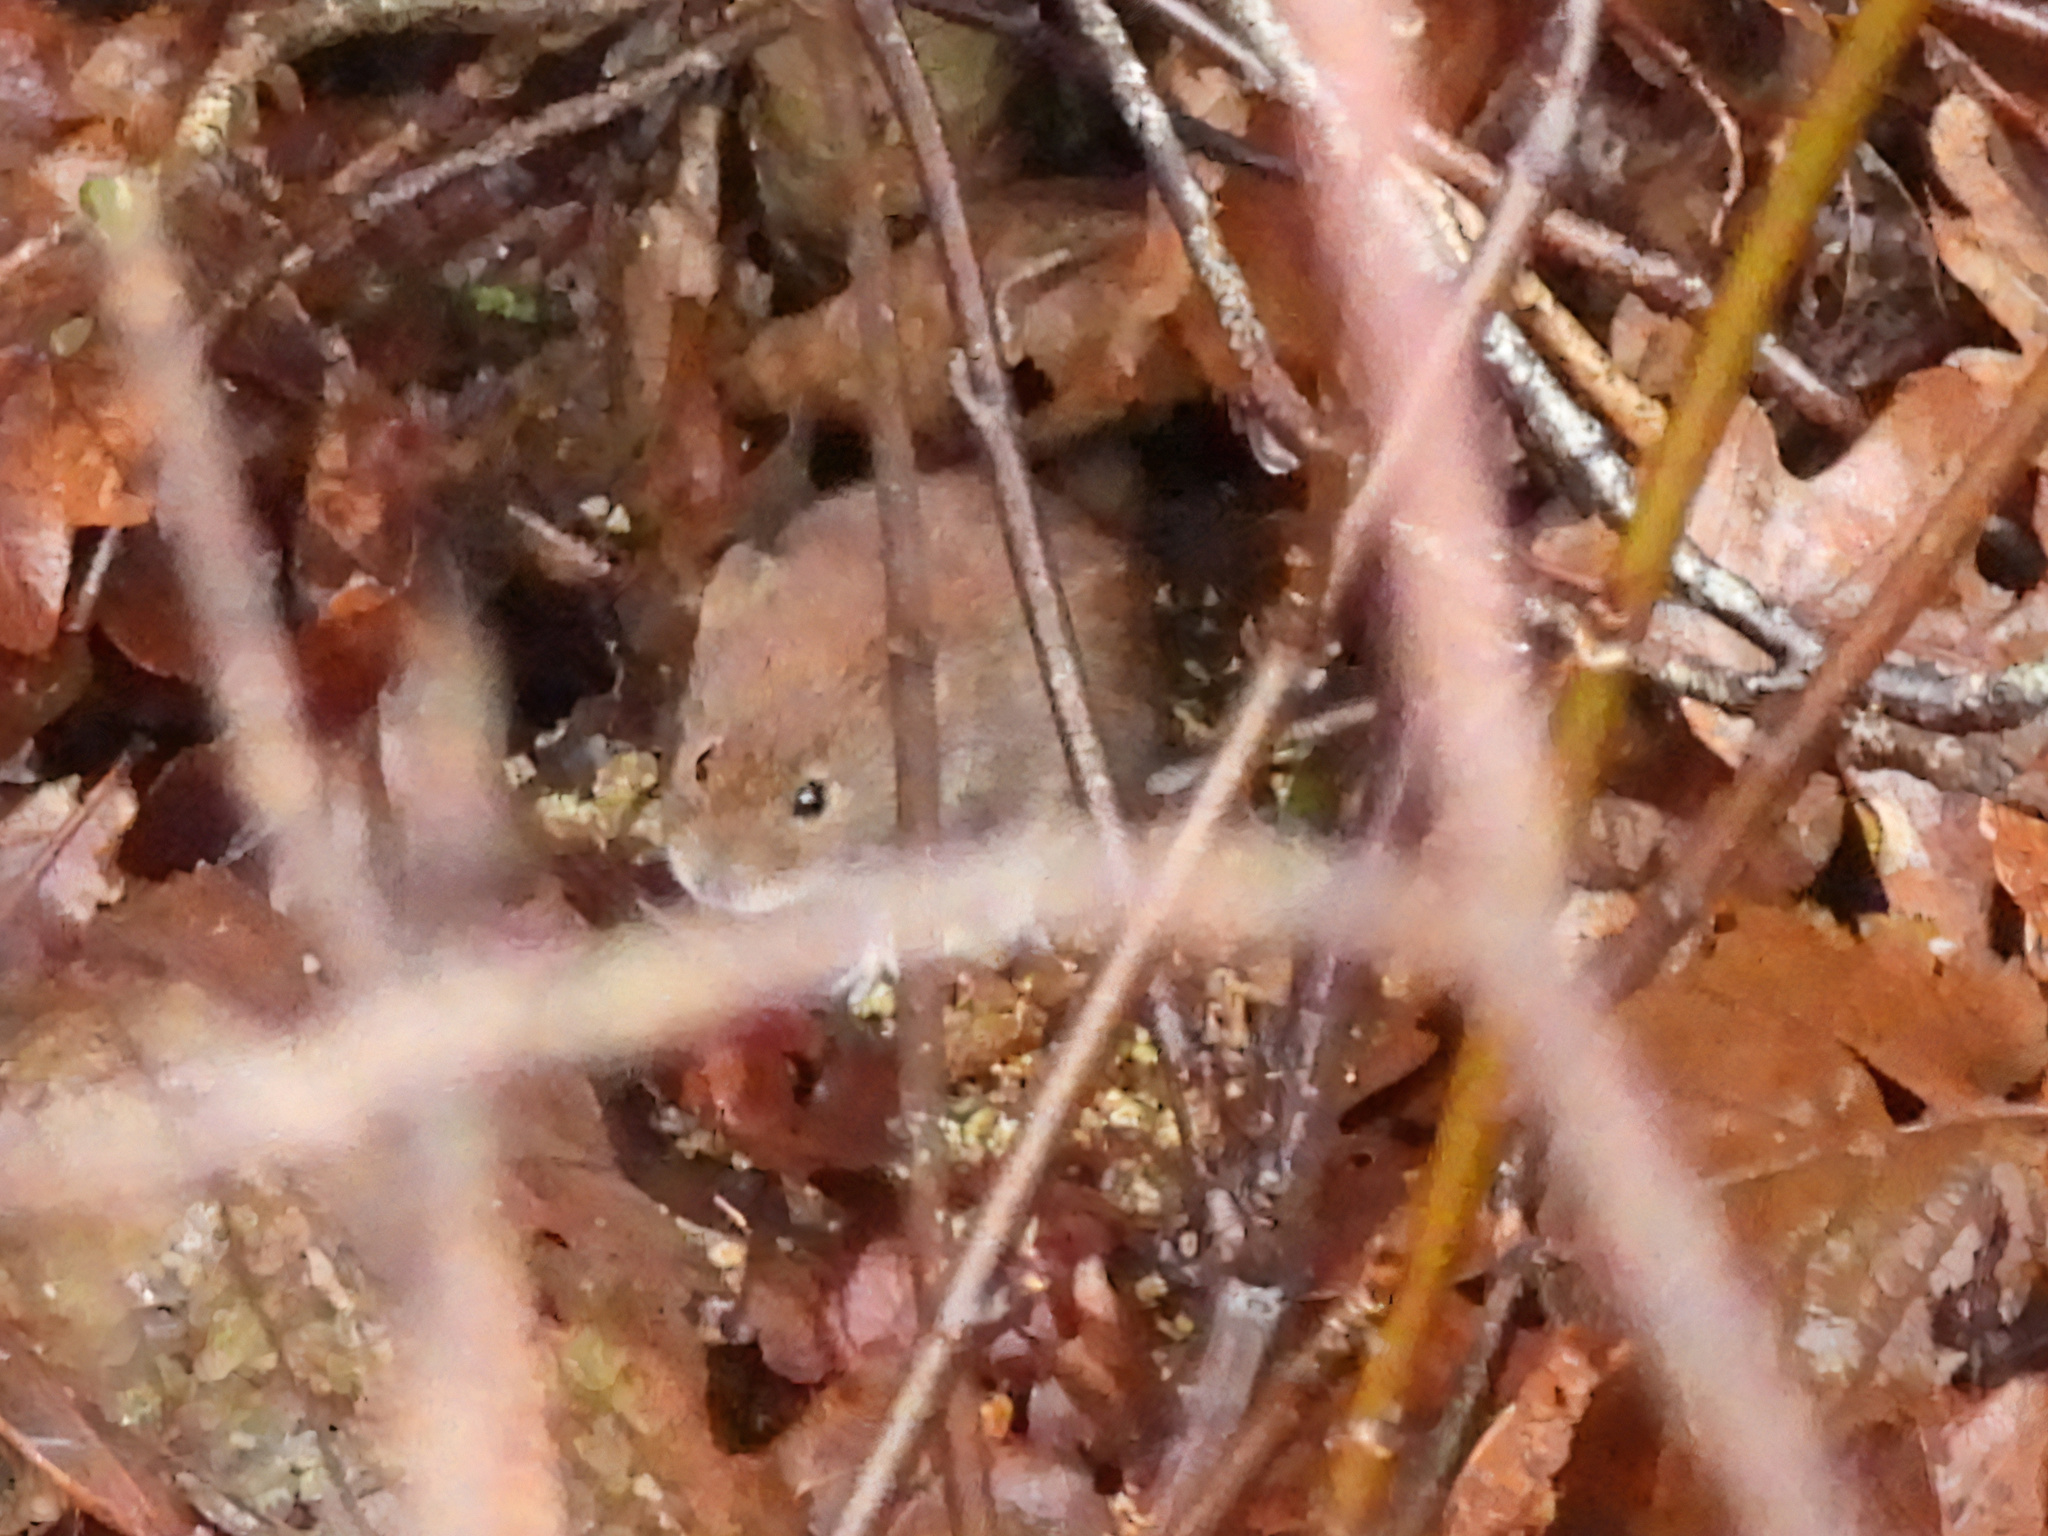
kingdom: Animalia
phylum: Chordata
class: Mammalia
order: Rodentia
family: Cricetidae
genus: Myodes
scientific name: Myodes glareolus
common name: Bank vole
